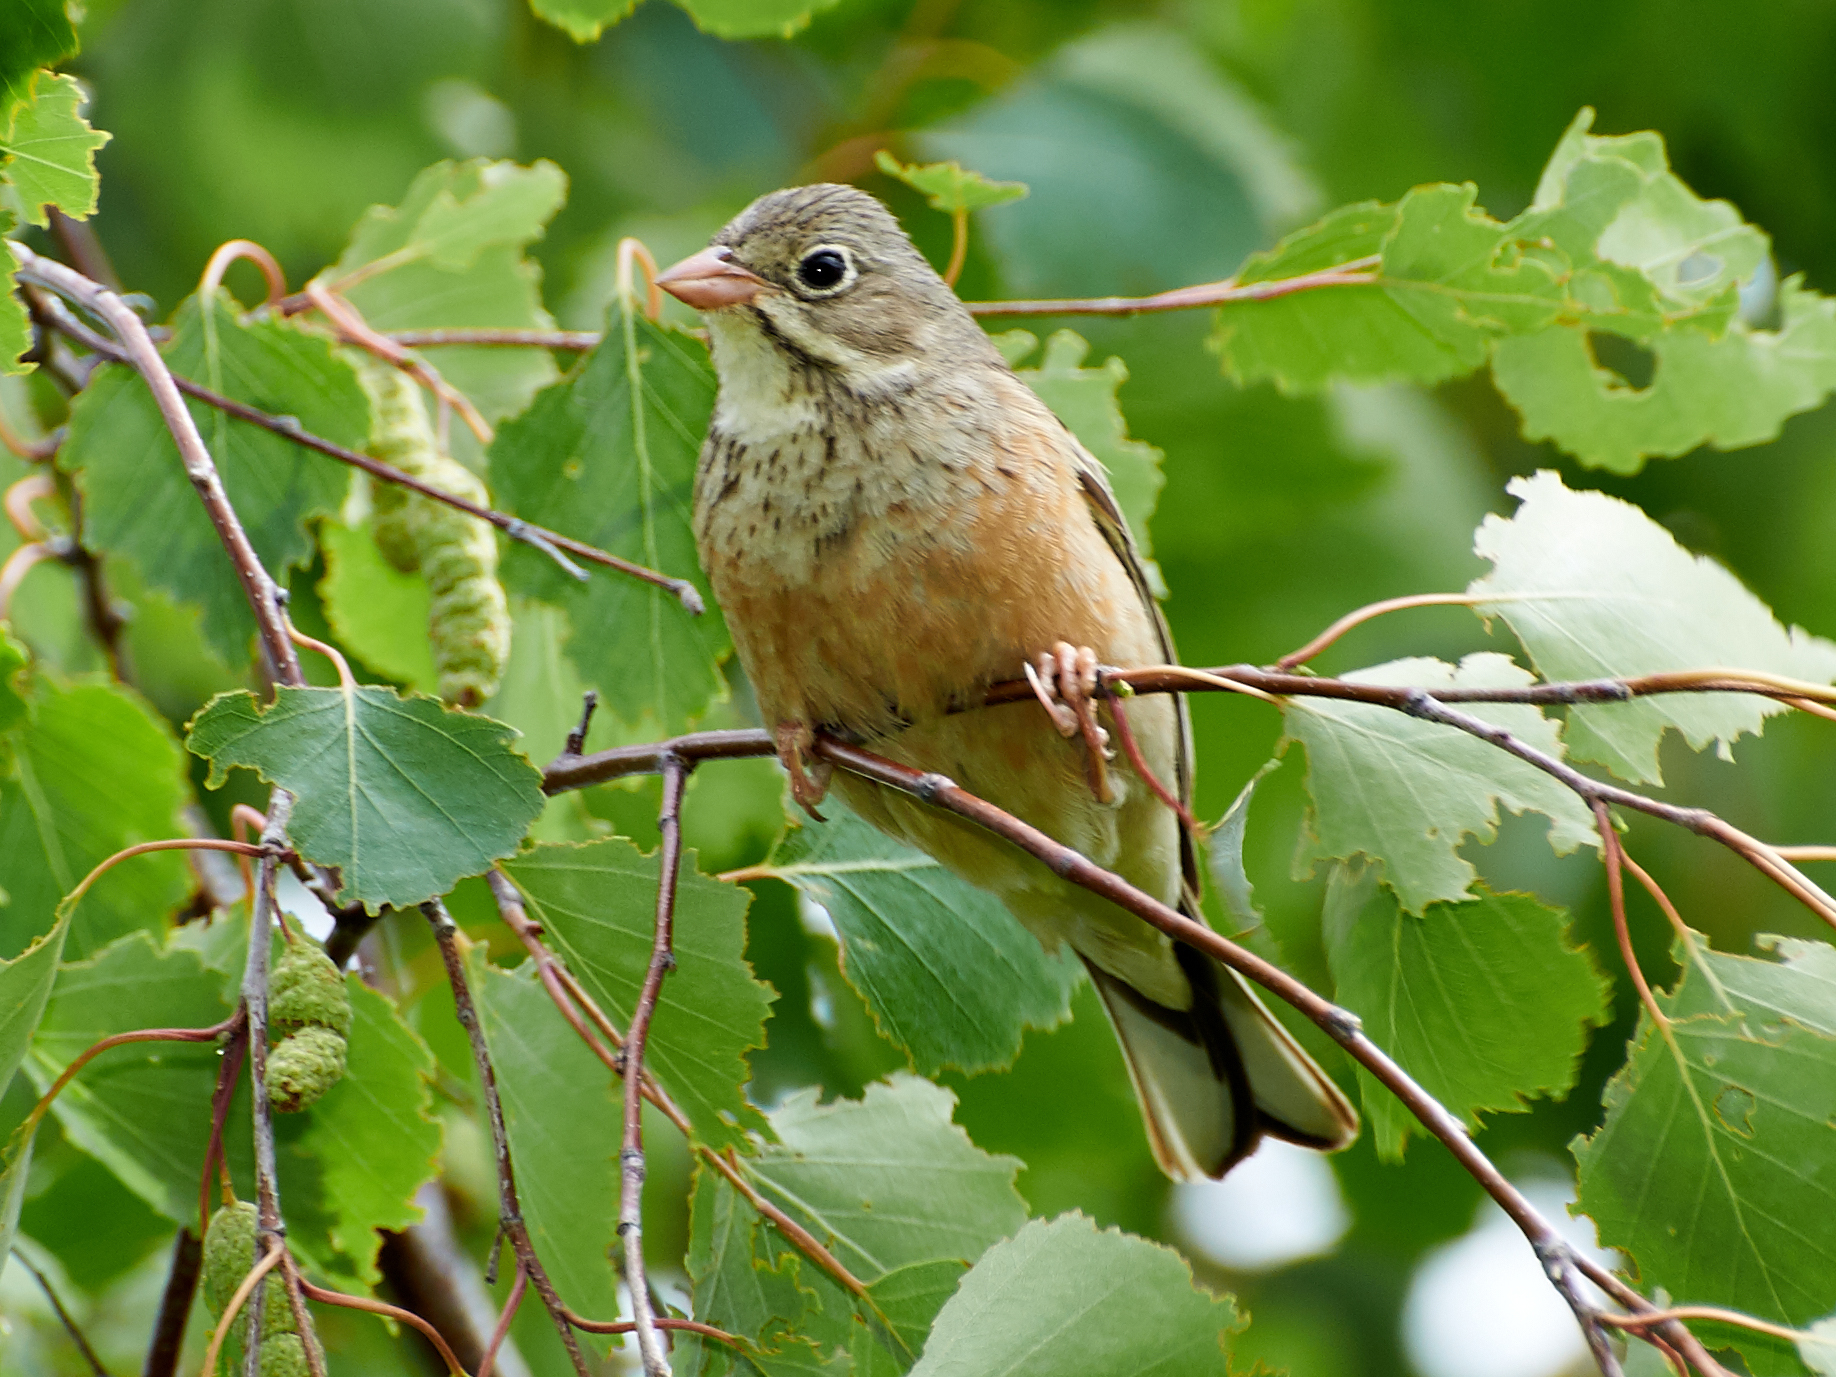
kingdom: Animalia
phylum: Chordata
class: Aves
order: Passeriformes
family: Emberizidae
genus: Emberiza
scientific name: Emberiza hortulana
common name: Ortolan bunting
